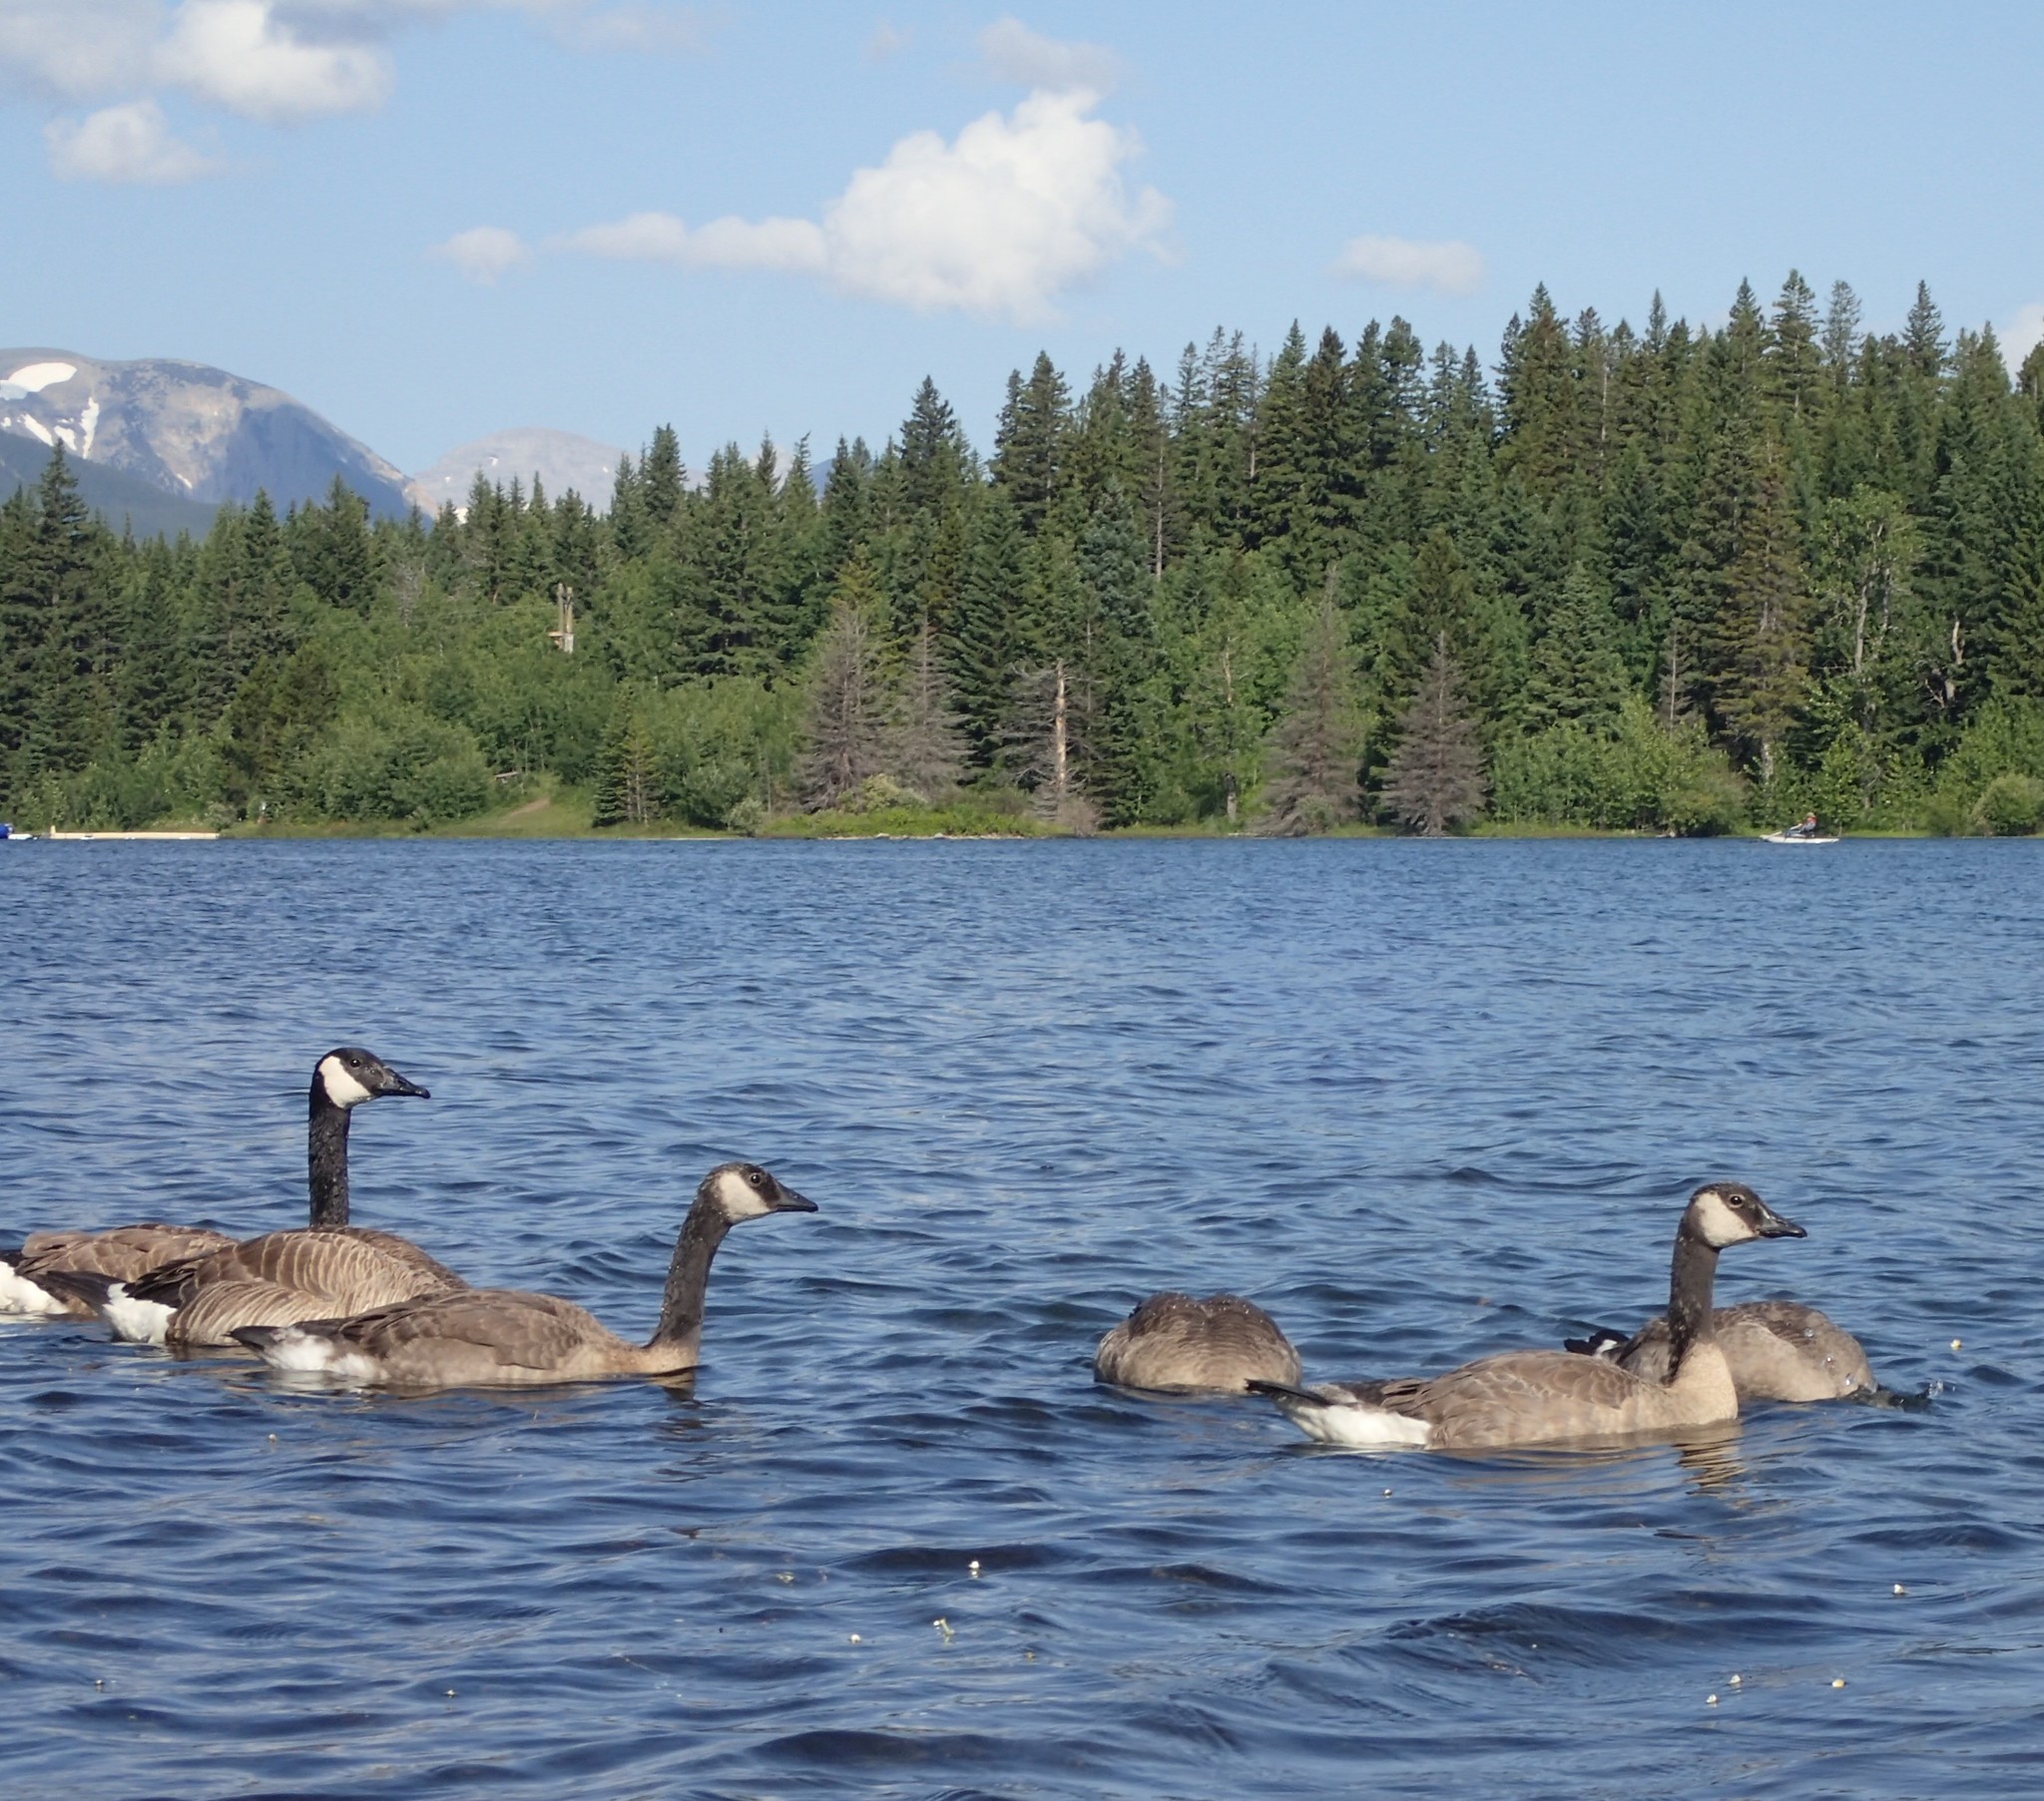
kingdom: Animalia
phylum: Chordata
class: Aves
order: Anseriformes
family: Anatidae
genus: Branta
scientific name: Branta canadensis
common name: Canada goose
